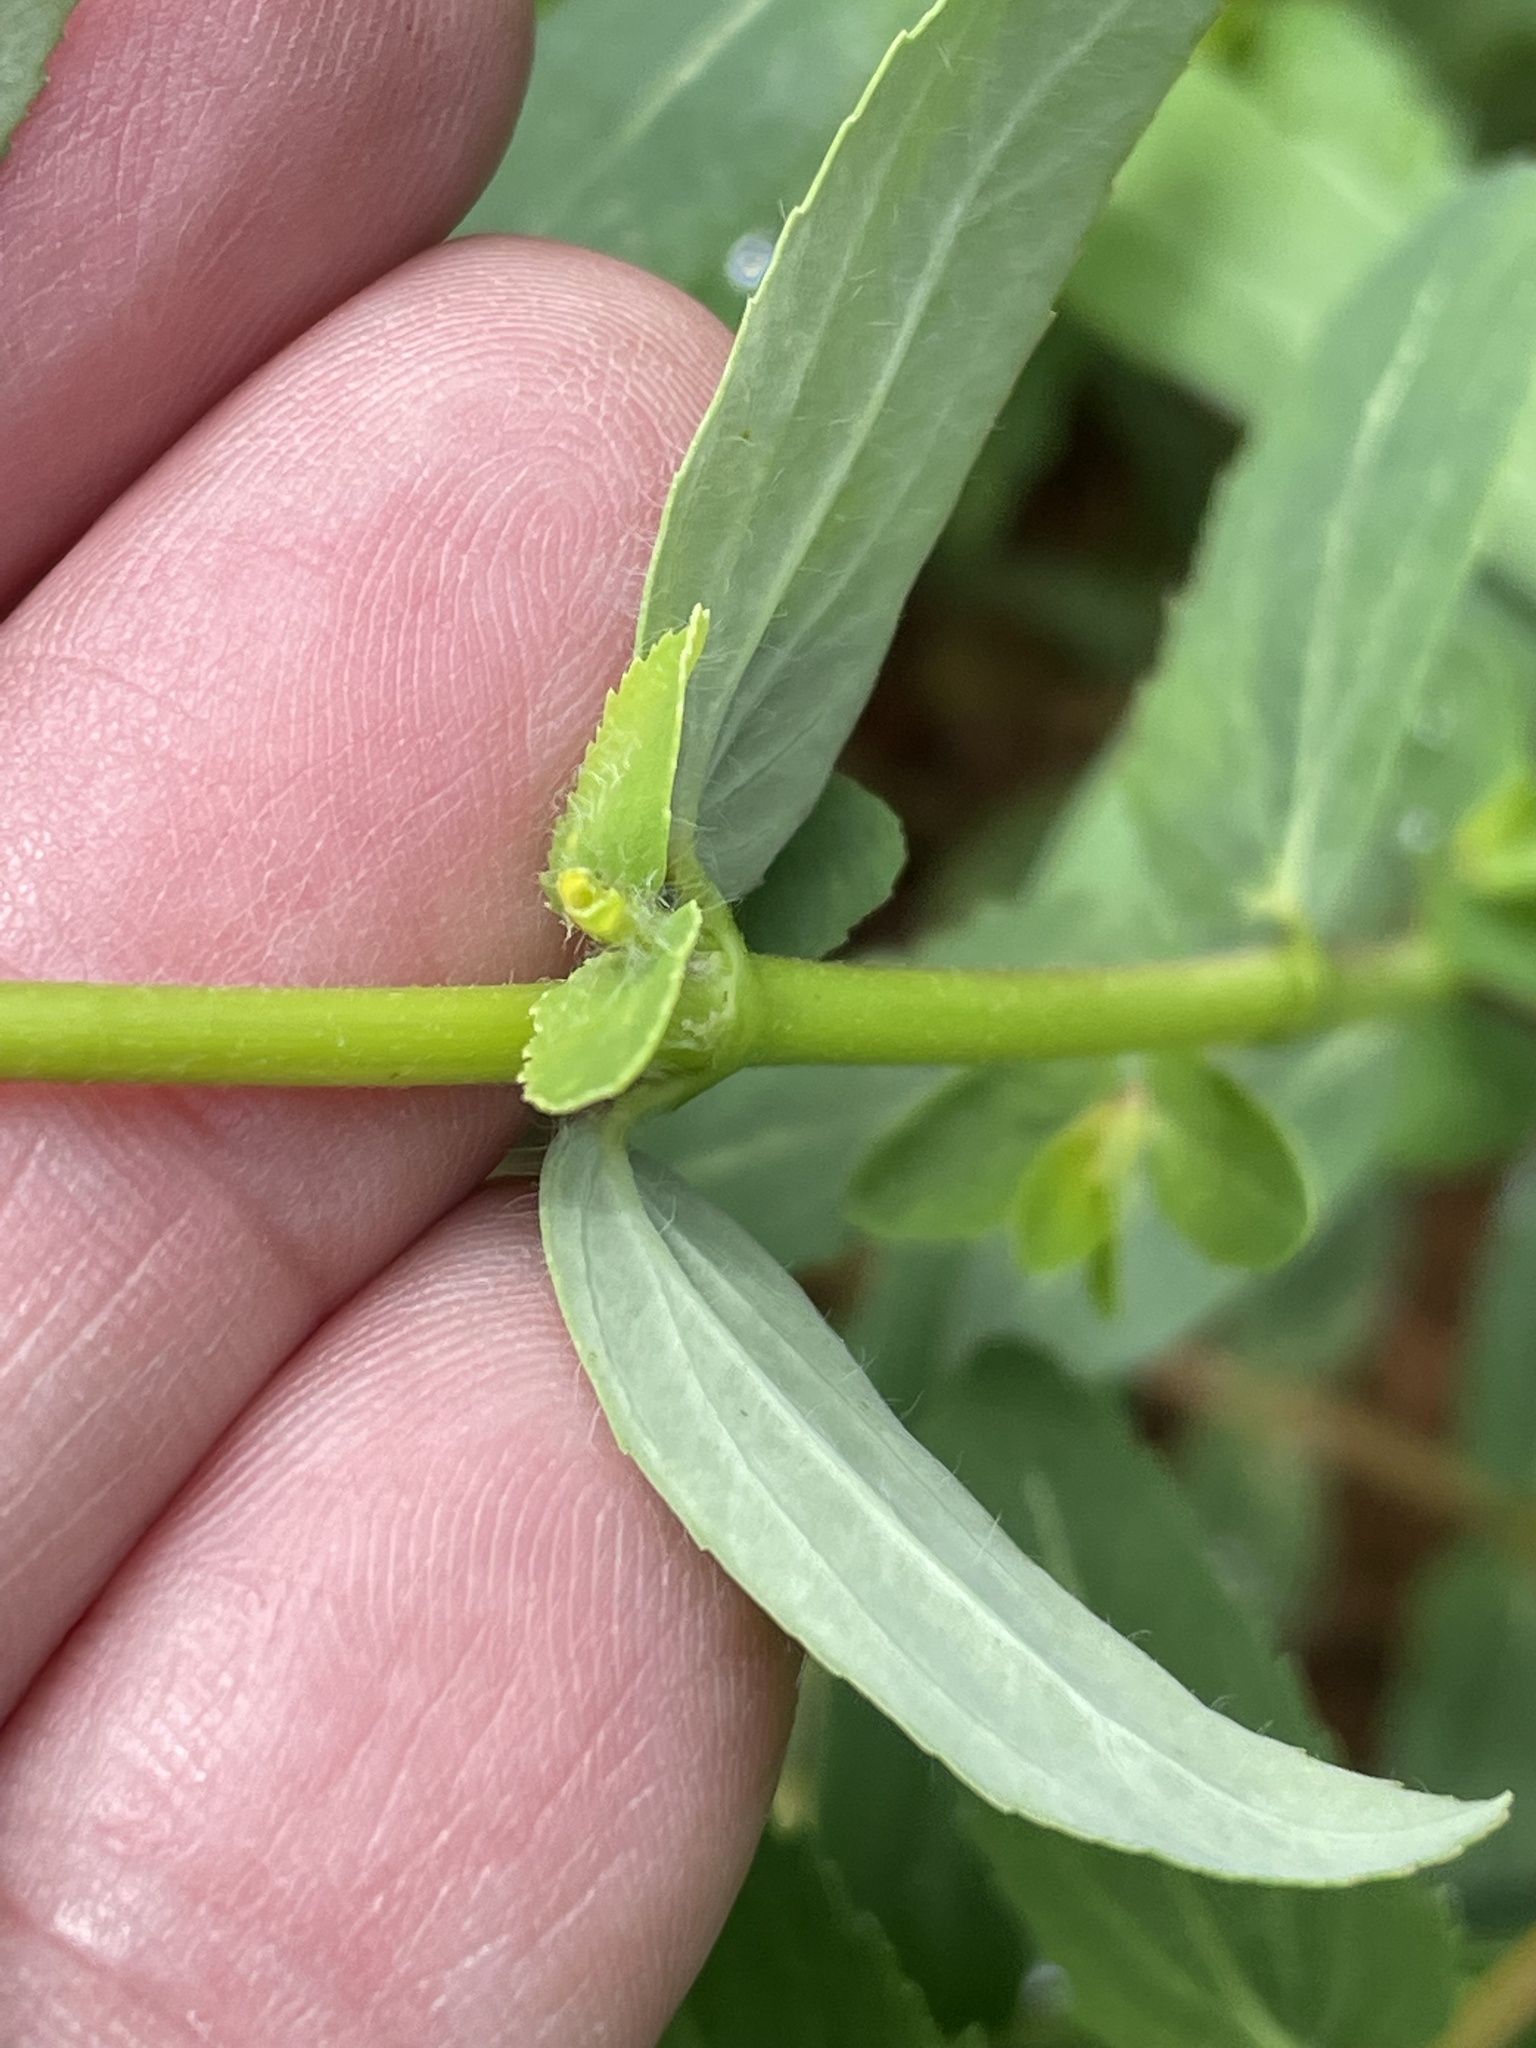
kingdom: Plantae
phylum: Tracheophyta
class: Magnoliopsida
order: Malpighiales
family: Euphorbiaceae
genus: Euphorbia
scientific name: Euphorbia nutans
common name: Eyebane
